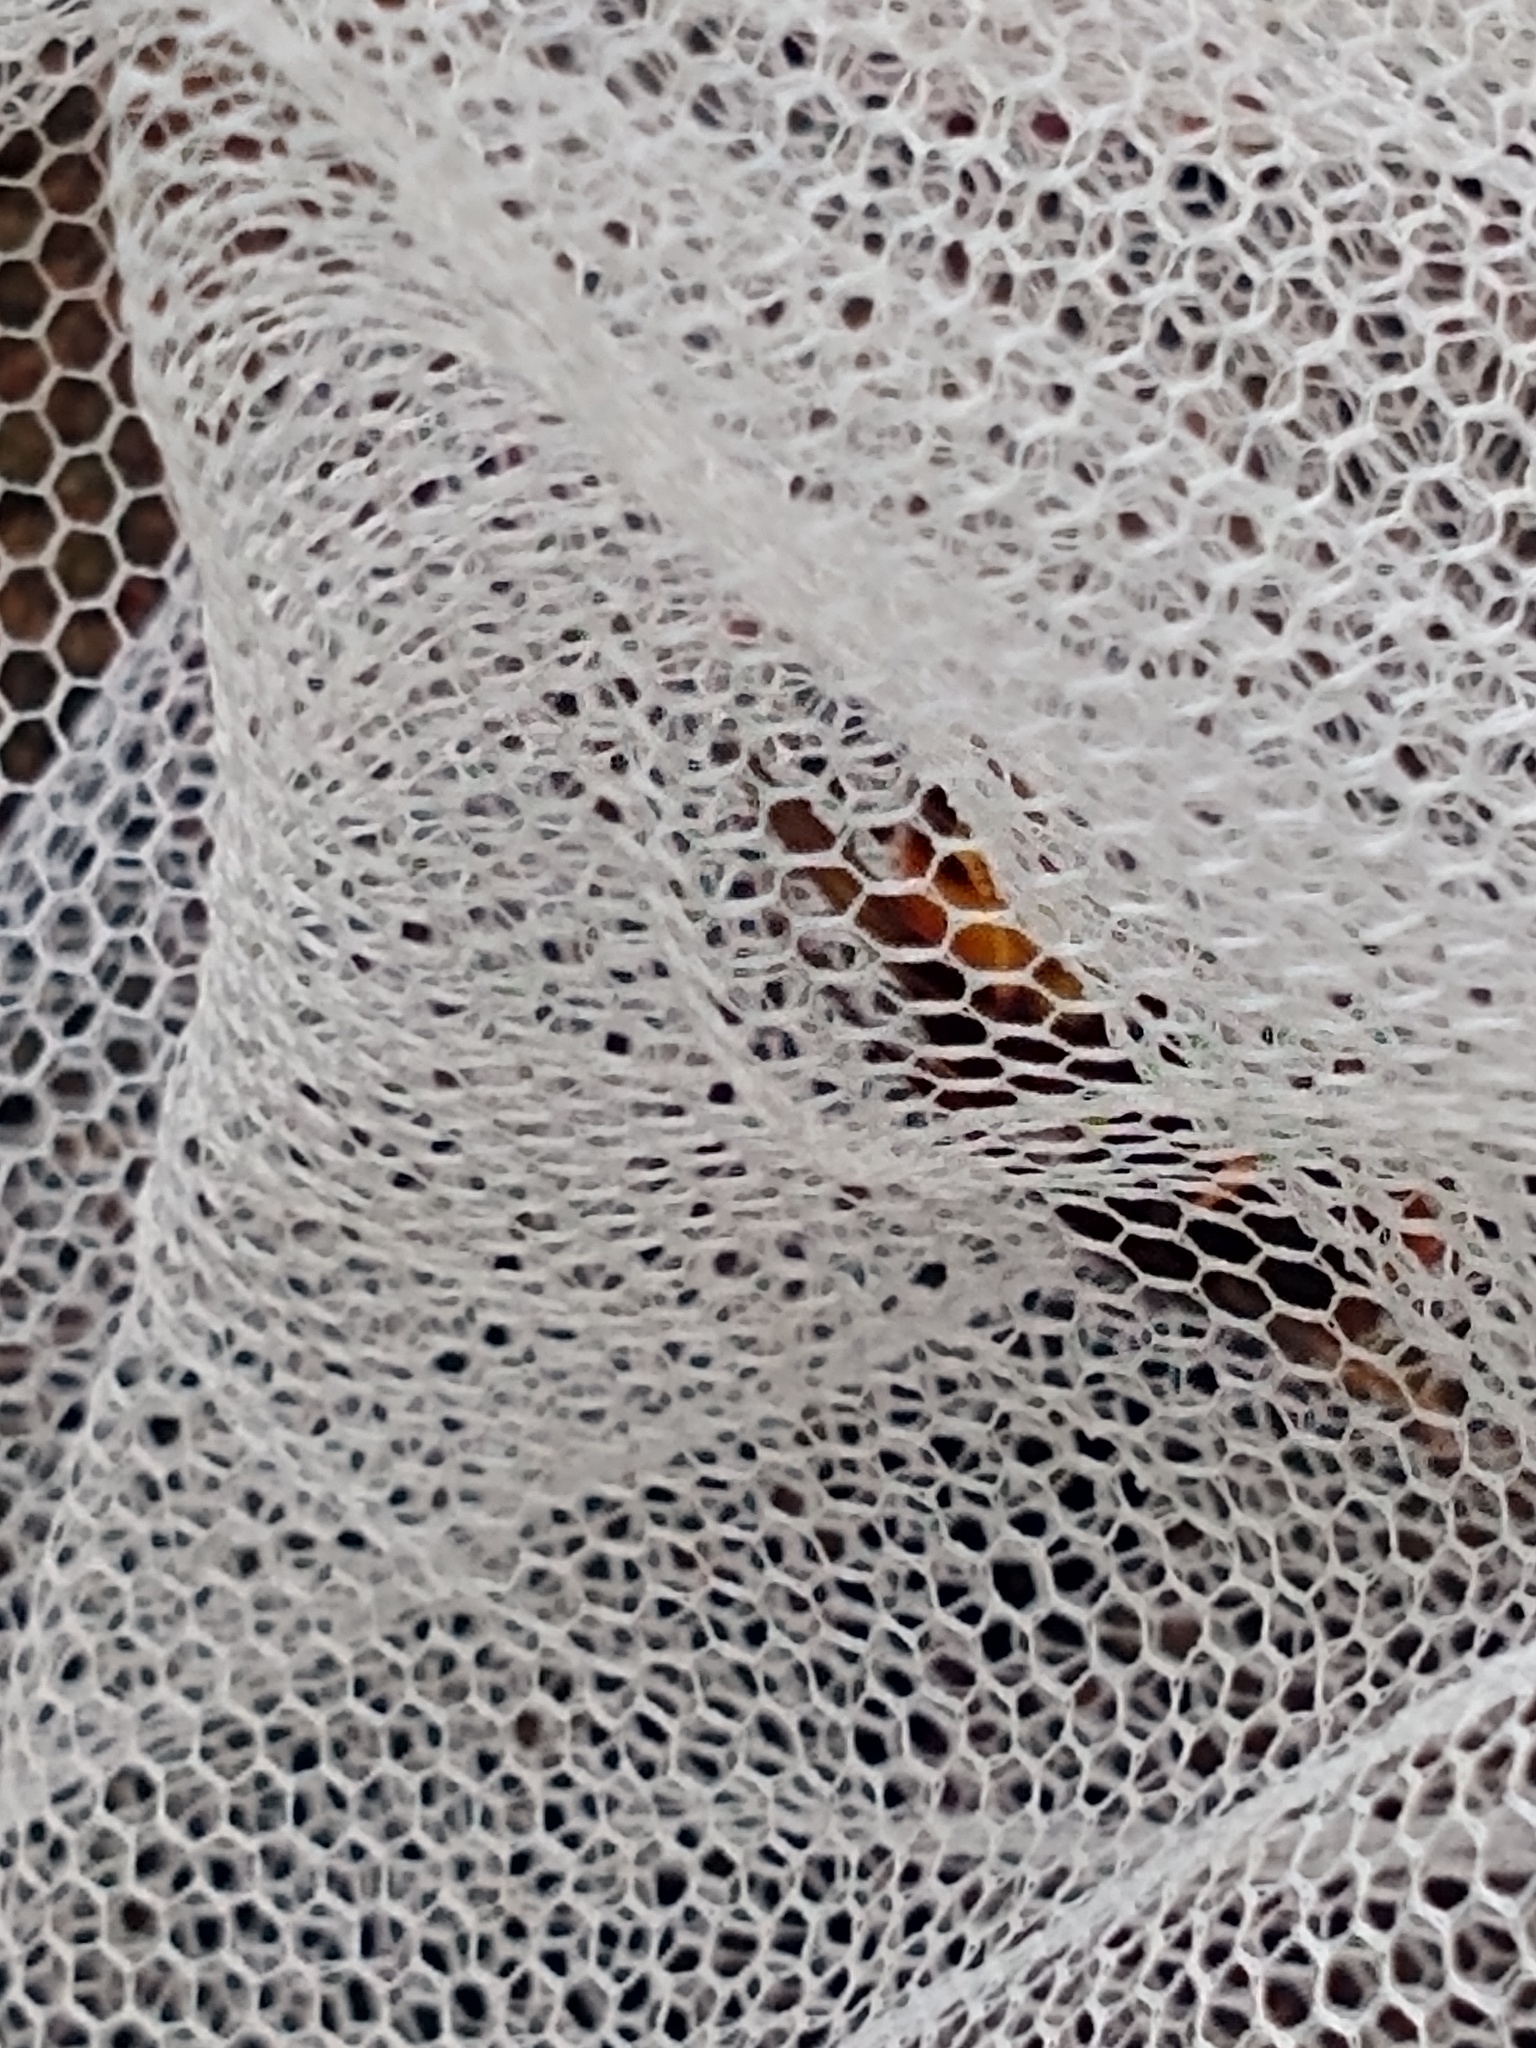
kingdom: Animalia
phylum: Arthropoda
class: Insecta
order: Hymenoptera
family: Vespidae
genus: Vespa
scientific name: Vespa velutina
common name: Asian hornet
